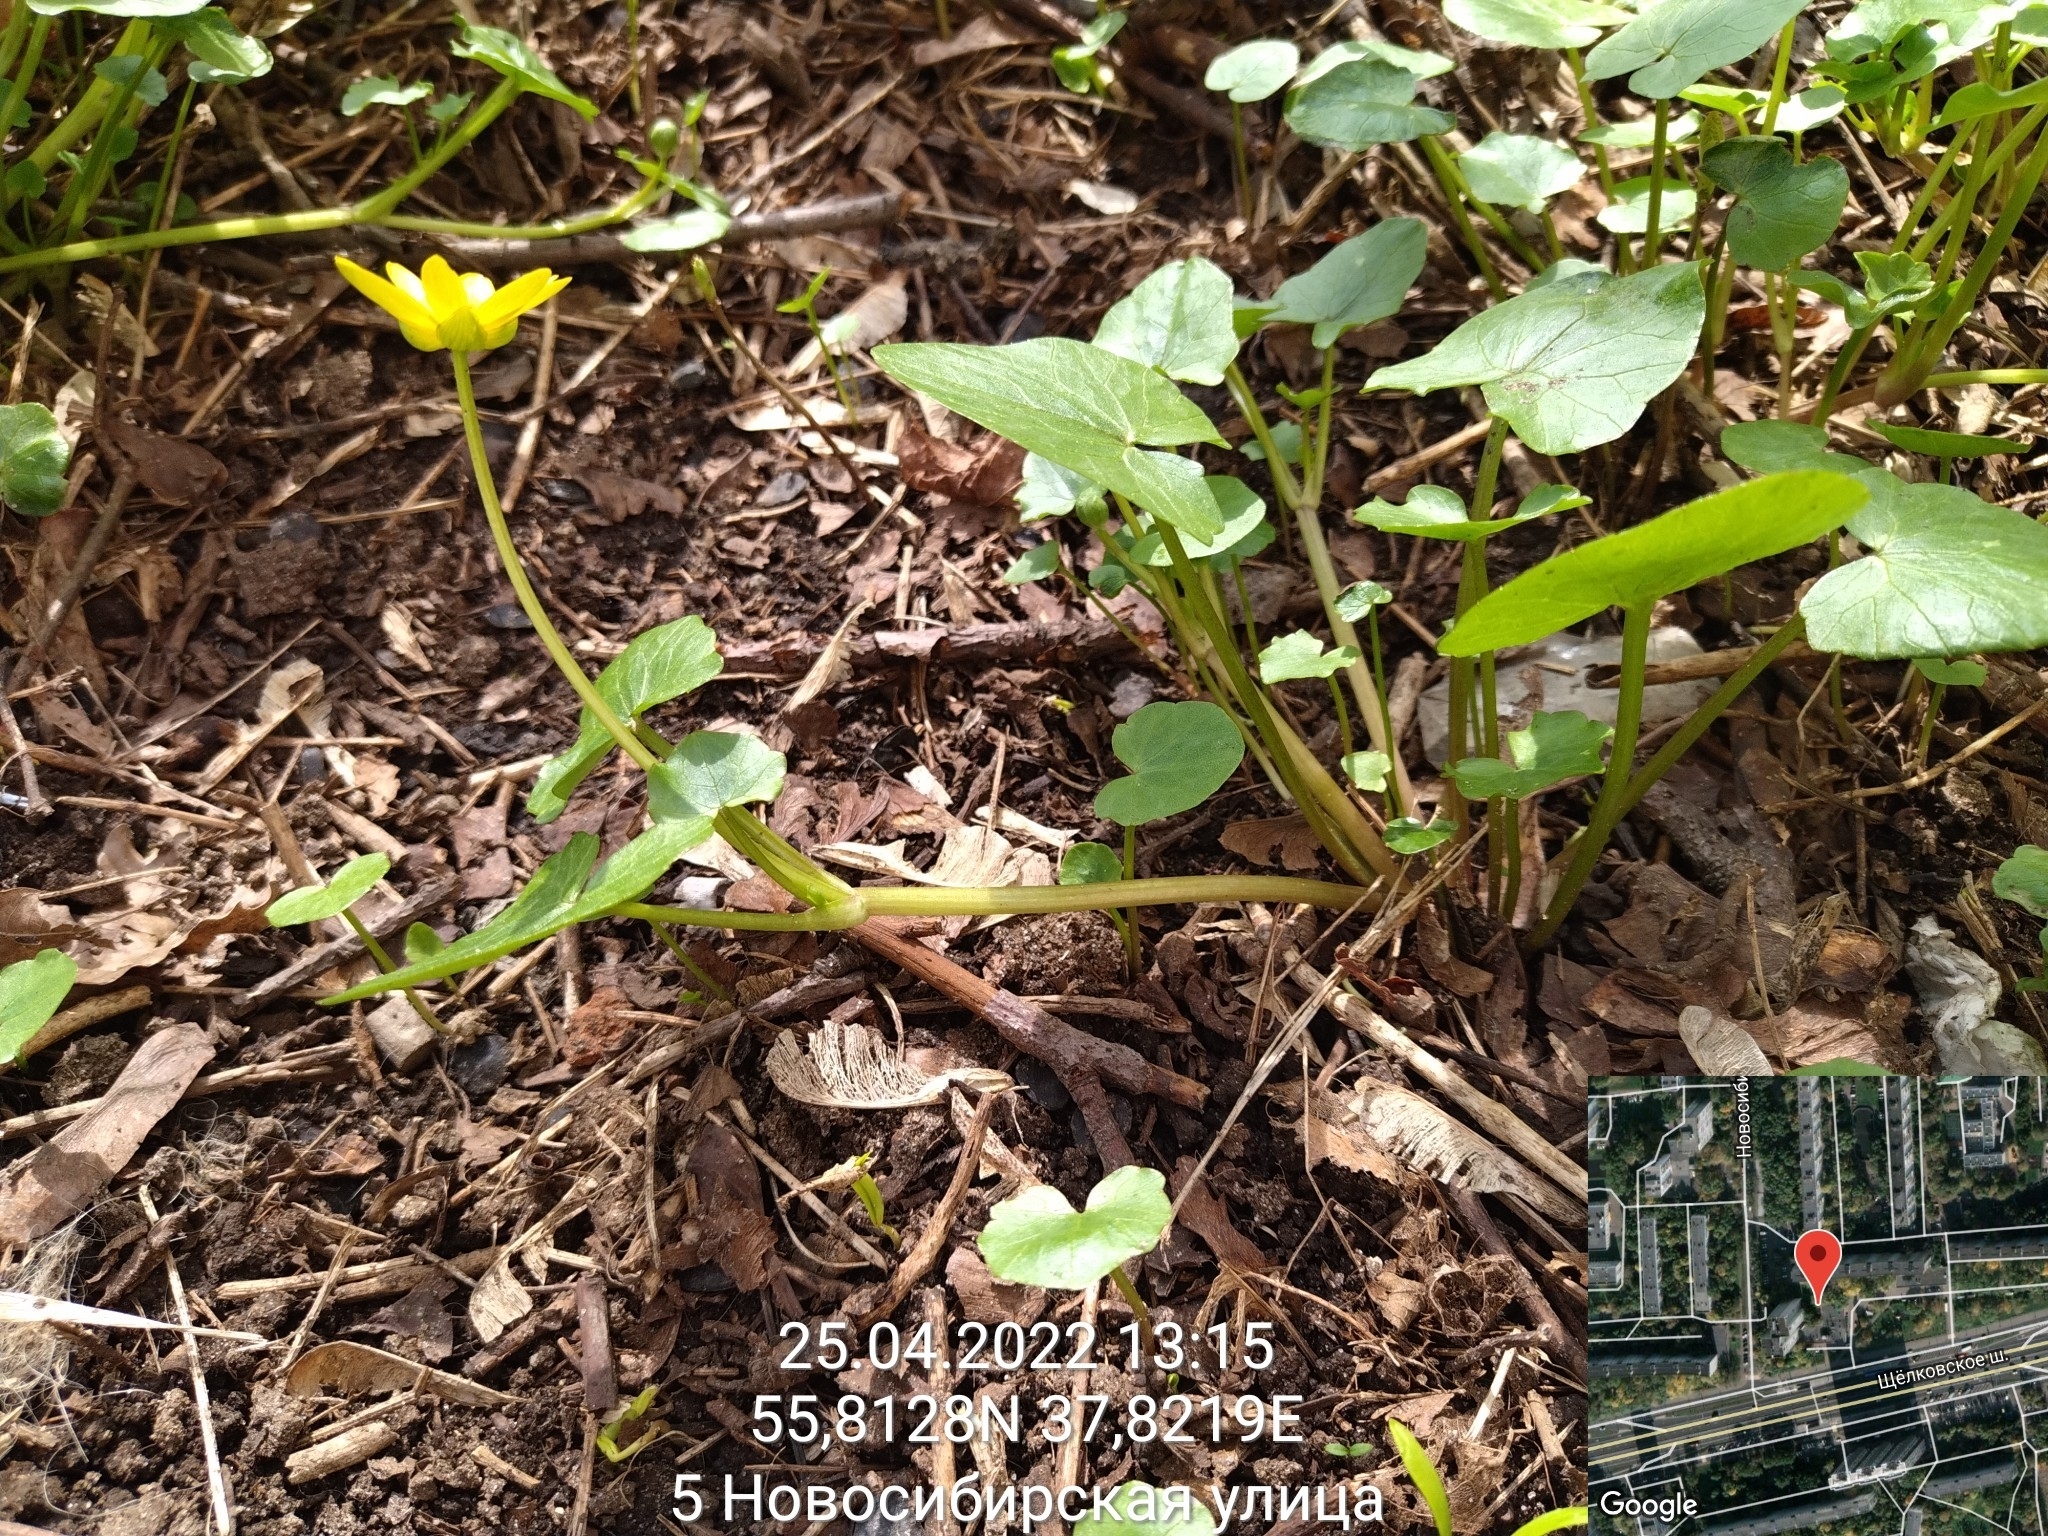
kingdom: Plantae
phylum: Tracheophyta
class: Magnoliopsida
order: Ranunculales
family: Ranunculaceae
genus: Ficaria
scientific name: Ficaria verna
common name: Lesser celandine
